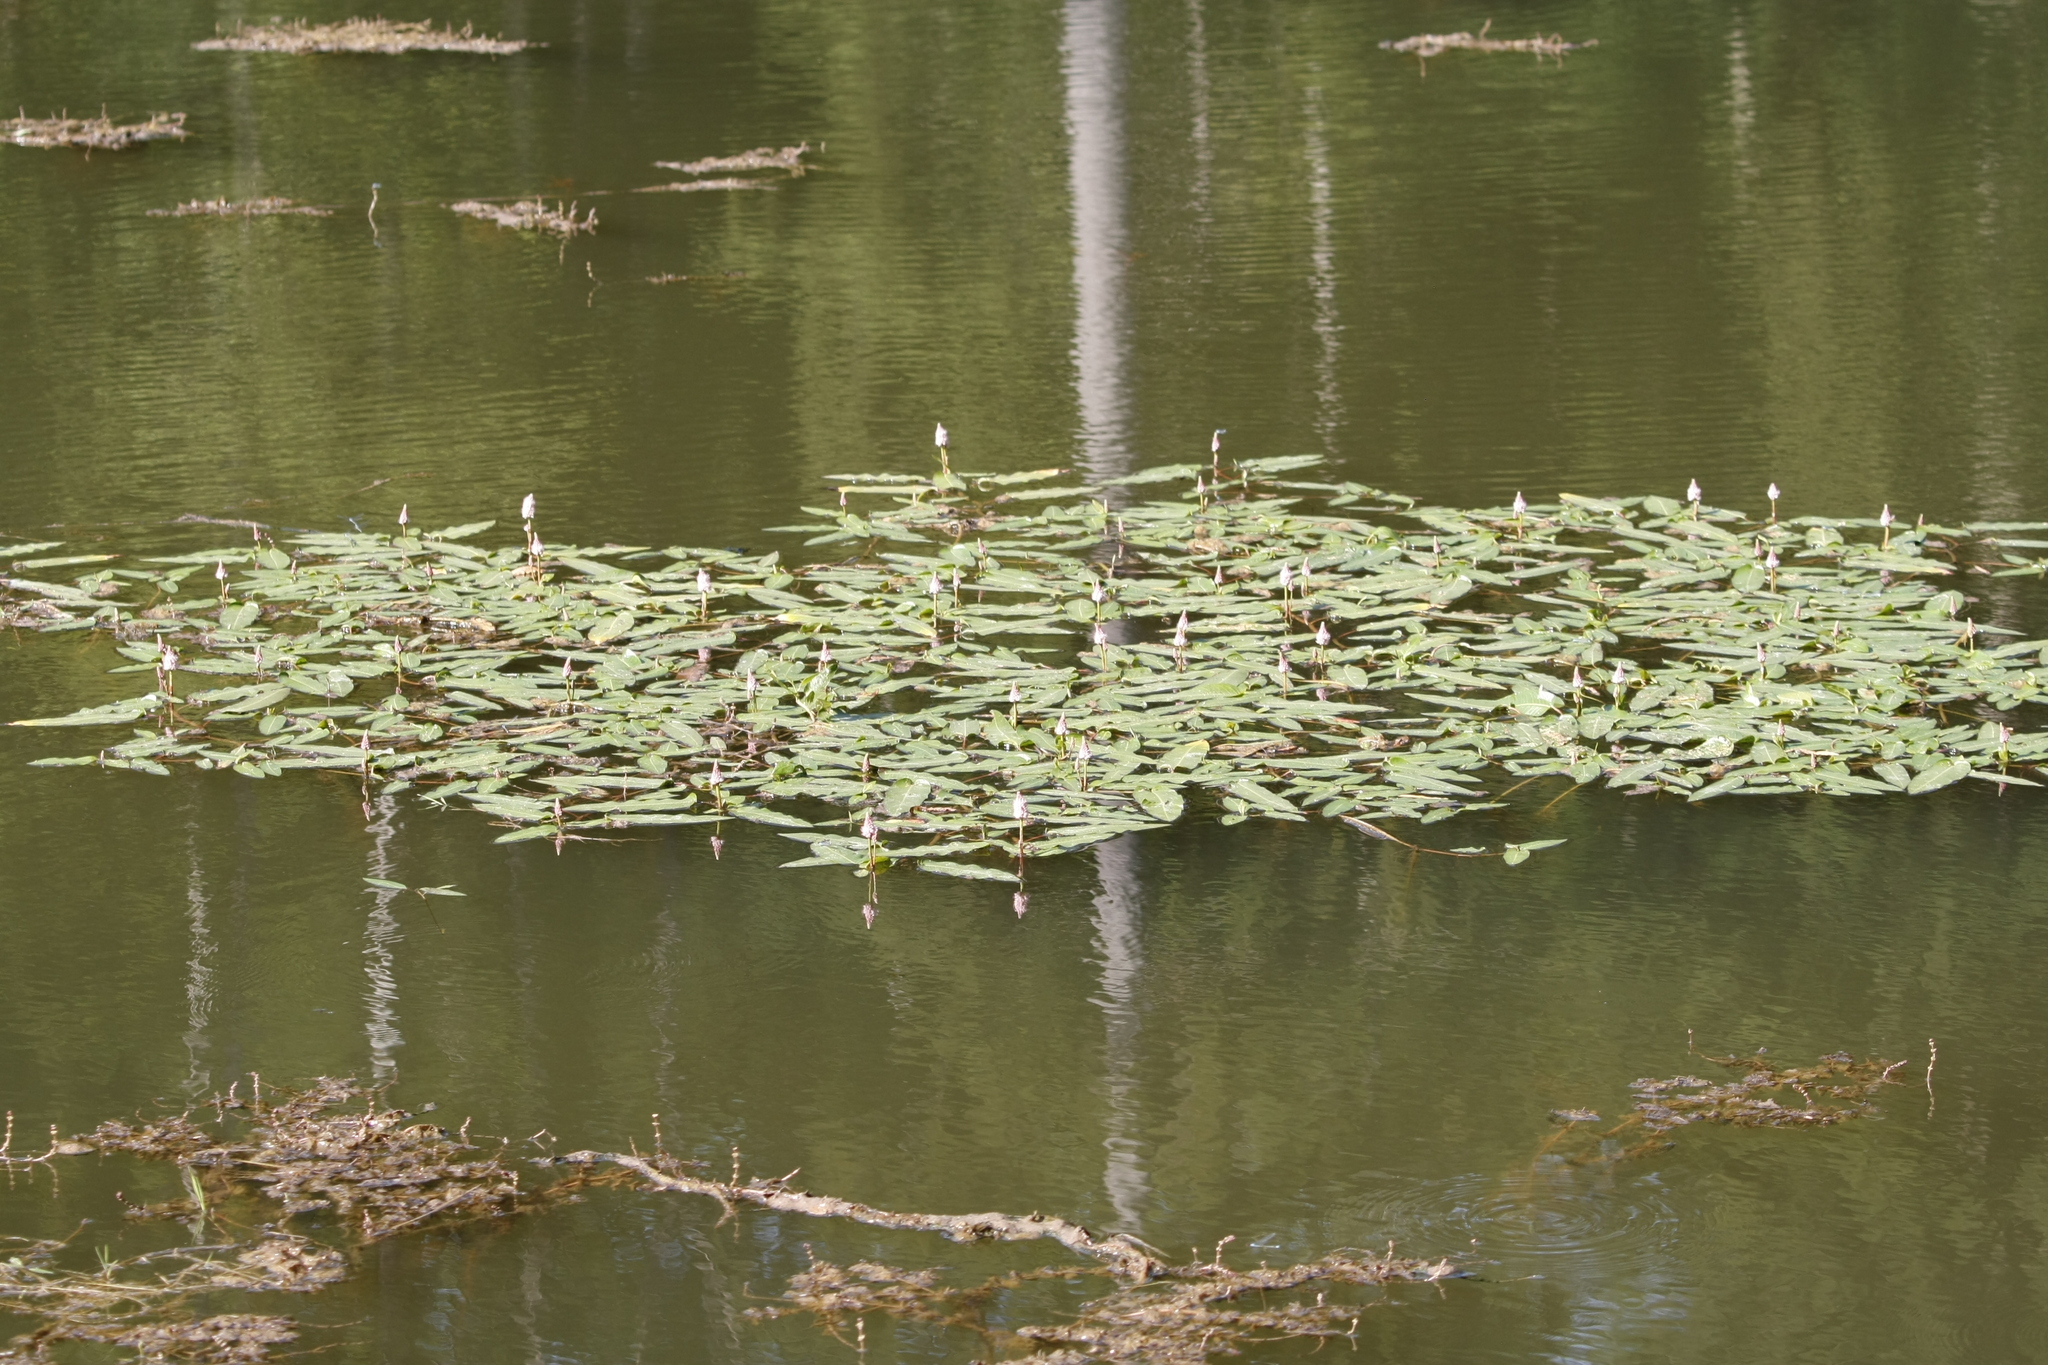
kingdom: Plantae
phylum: Tracheophyta
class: Magnoliopsida
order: Caryophyllales
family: Polygonaceae
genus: Persicaria
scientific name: Persicaria amphibia
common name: Amphibious bistort
